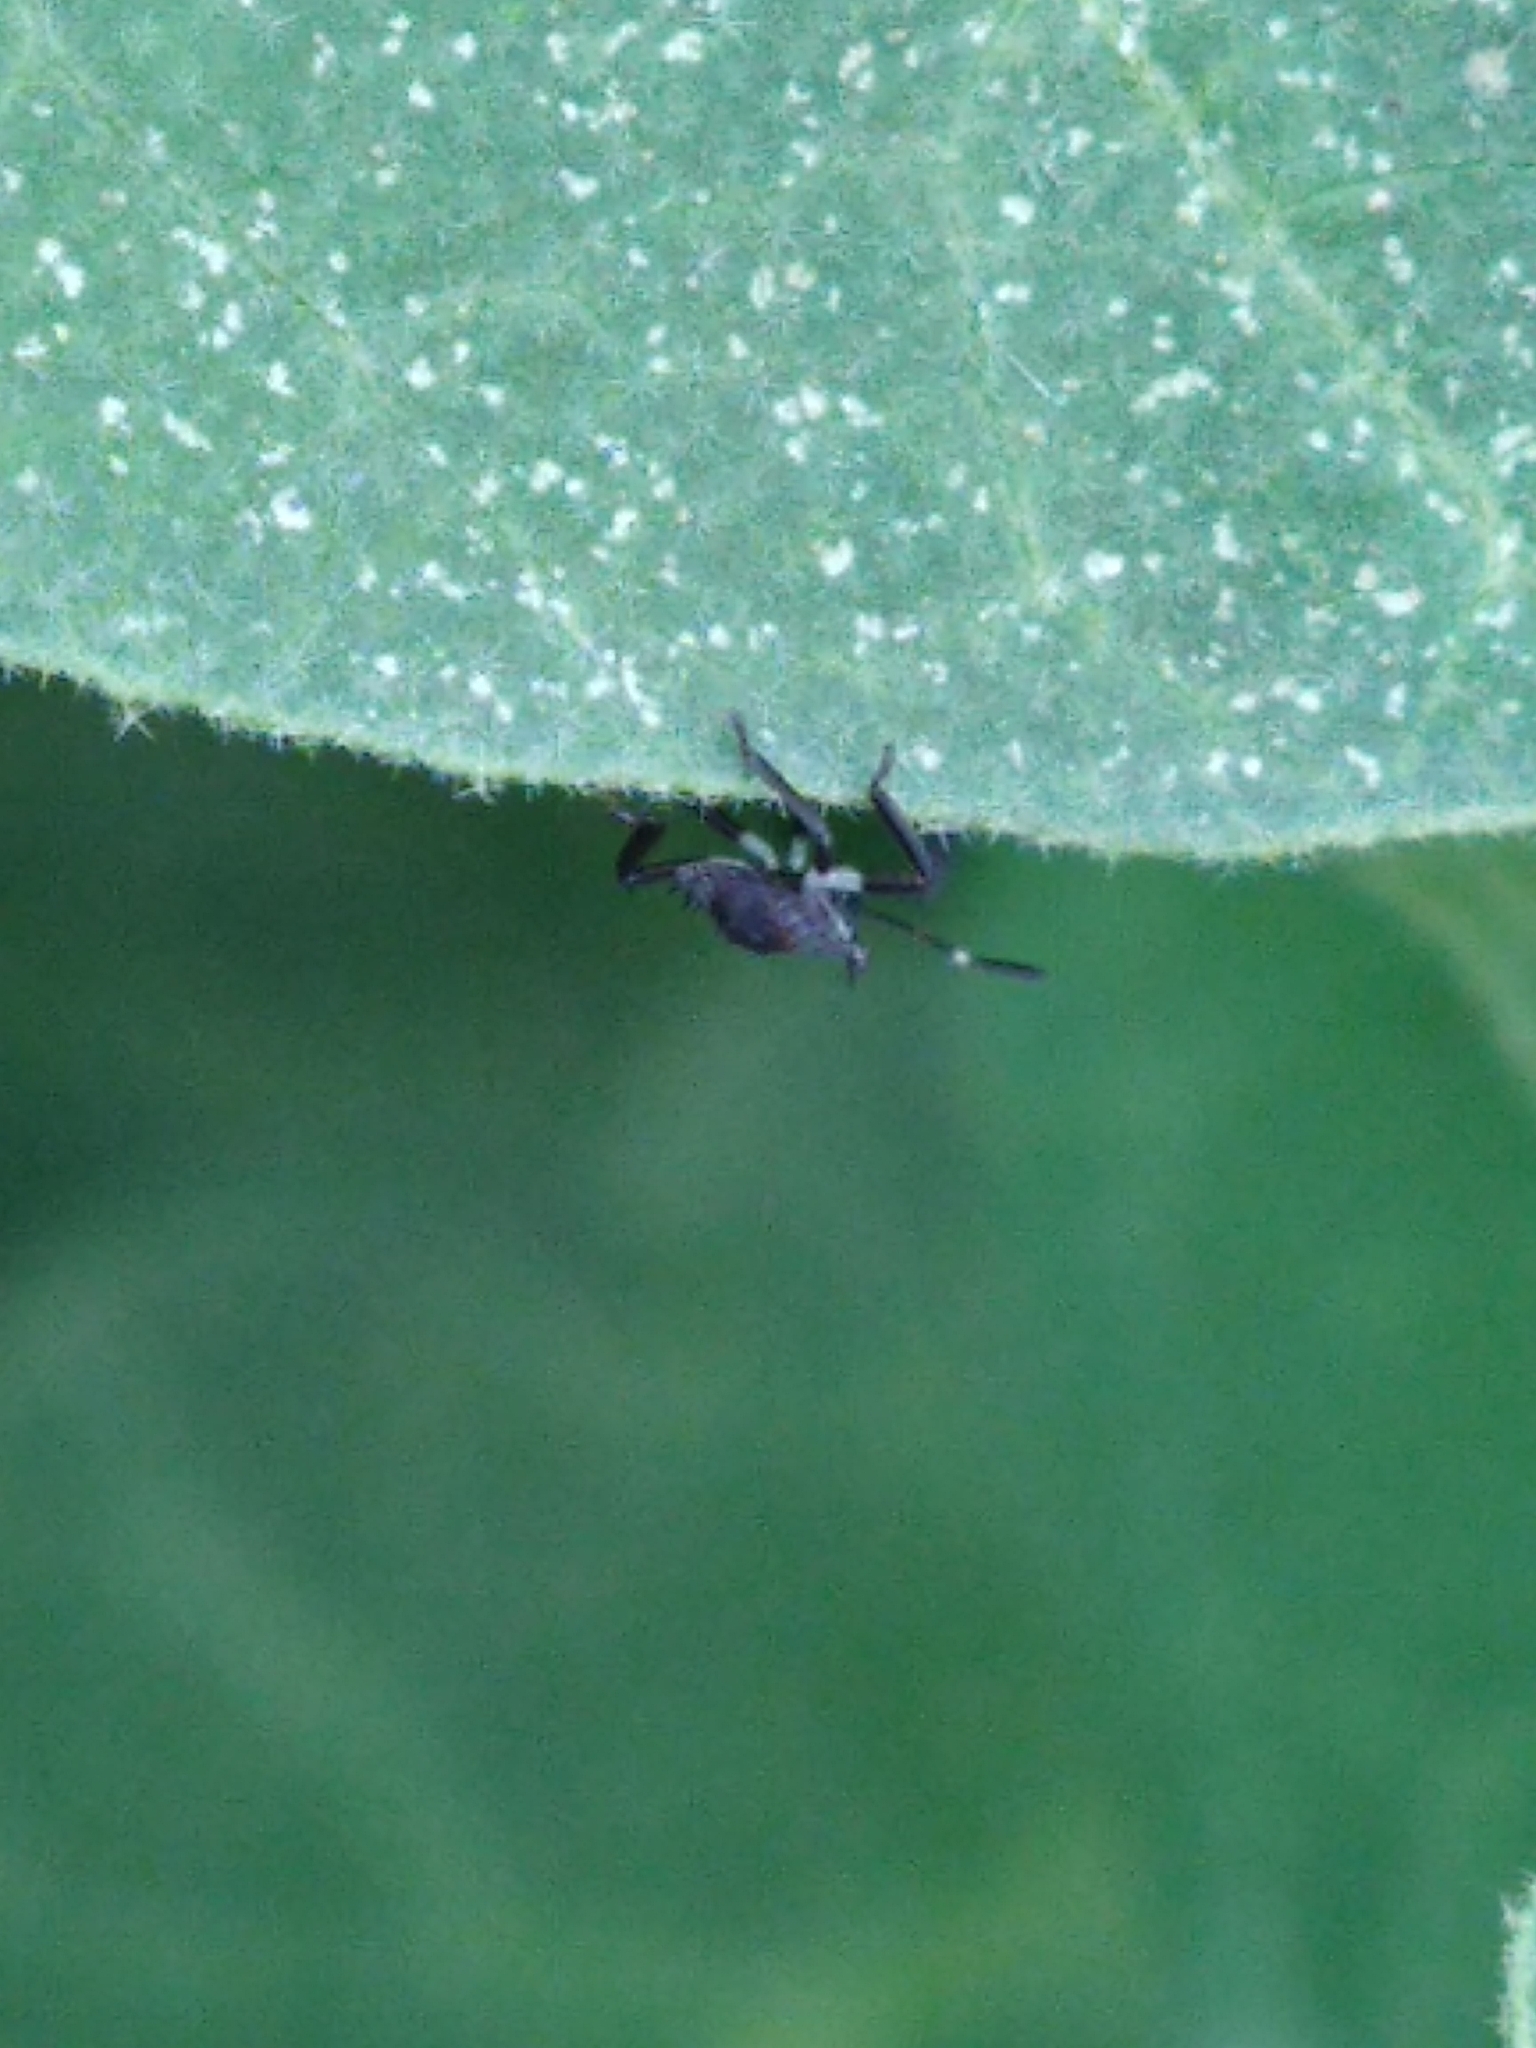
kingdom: Animalia
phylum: Arthropoda
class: Insecta
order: Hemiptera
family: Pentatomidae
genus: Halyomorpha
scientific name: Halyomorpha halys
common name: Brown marmorated stink bug
